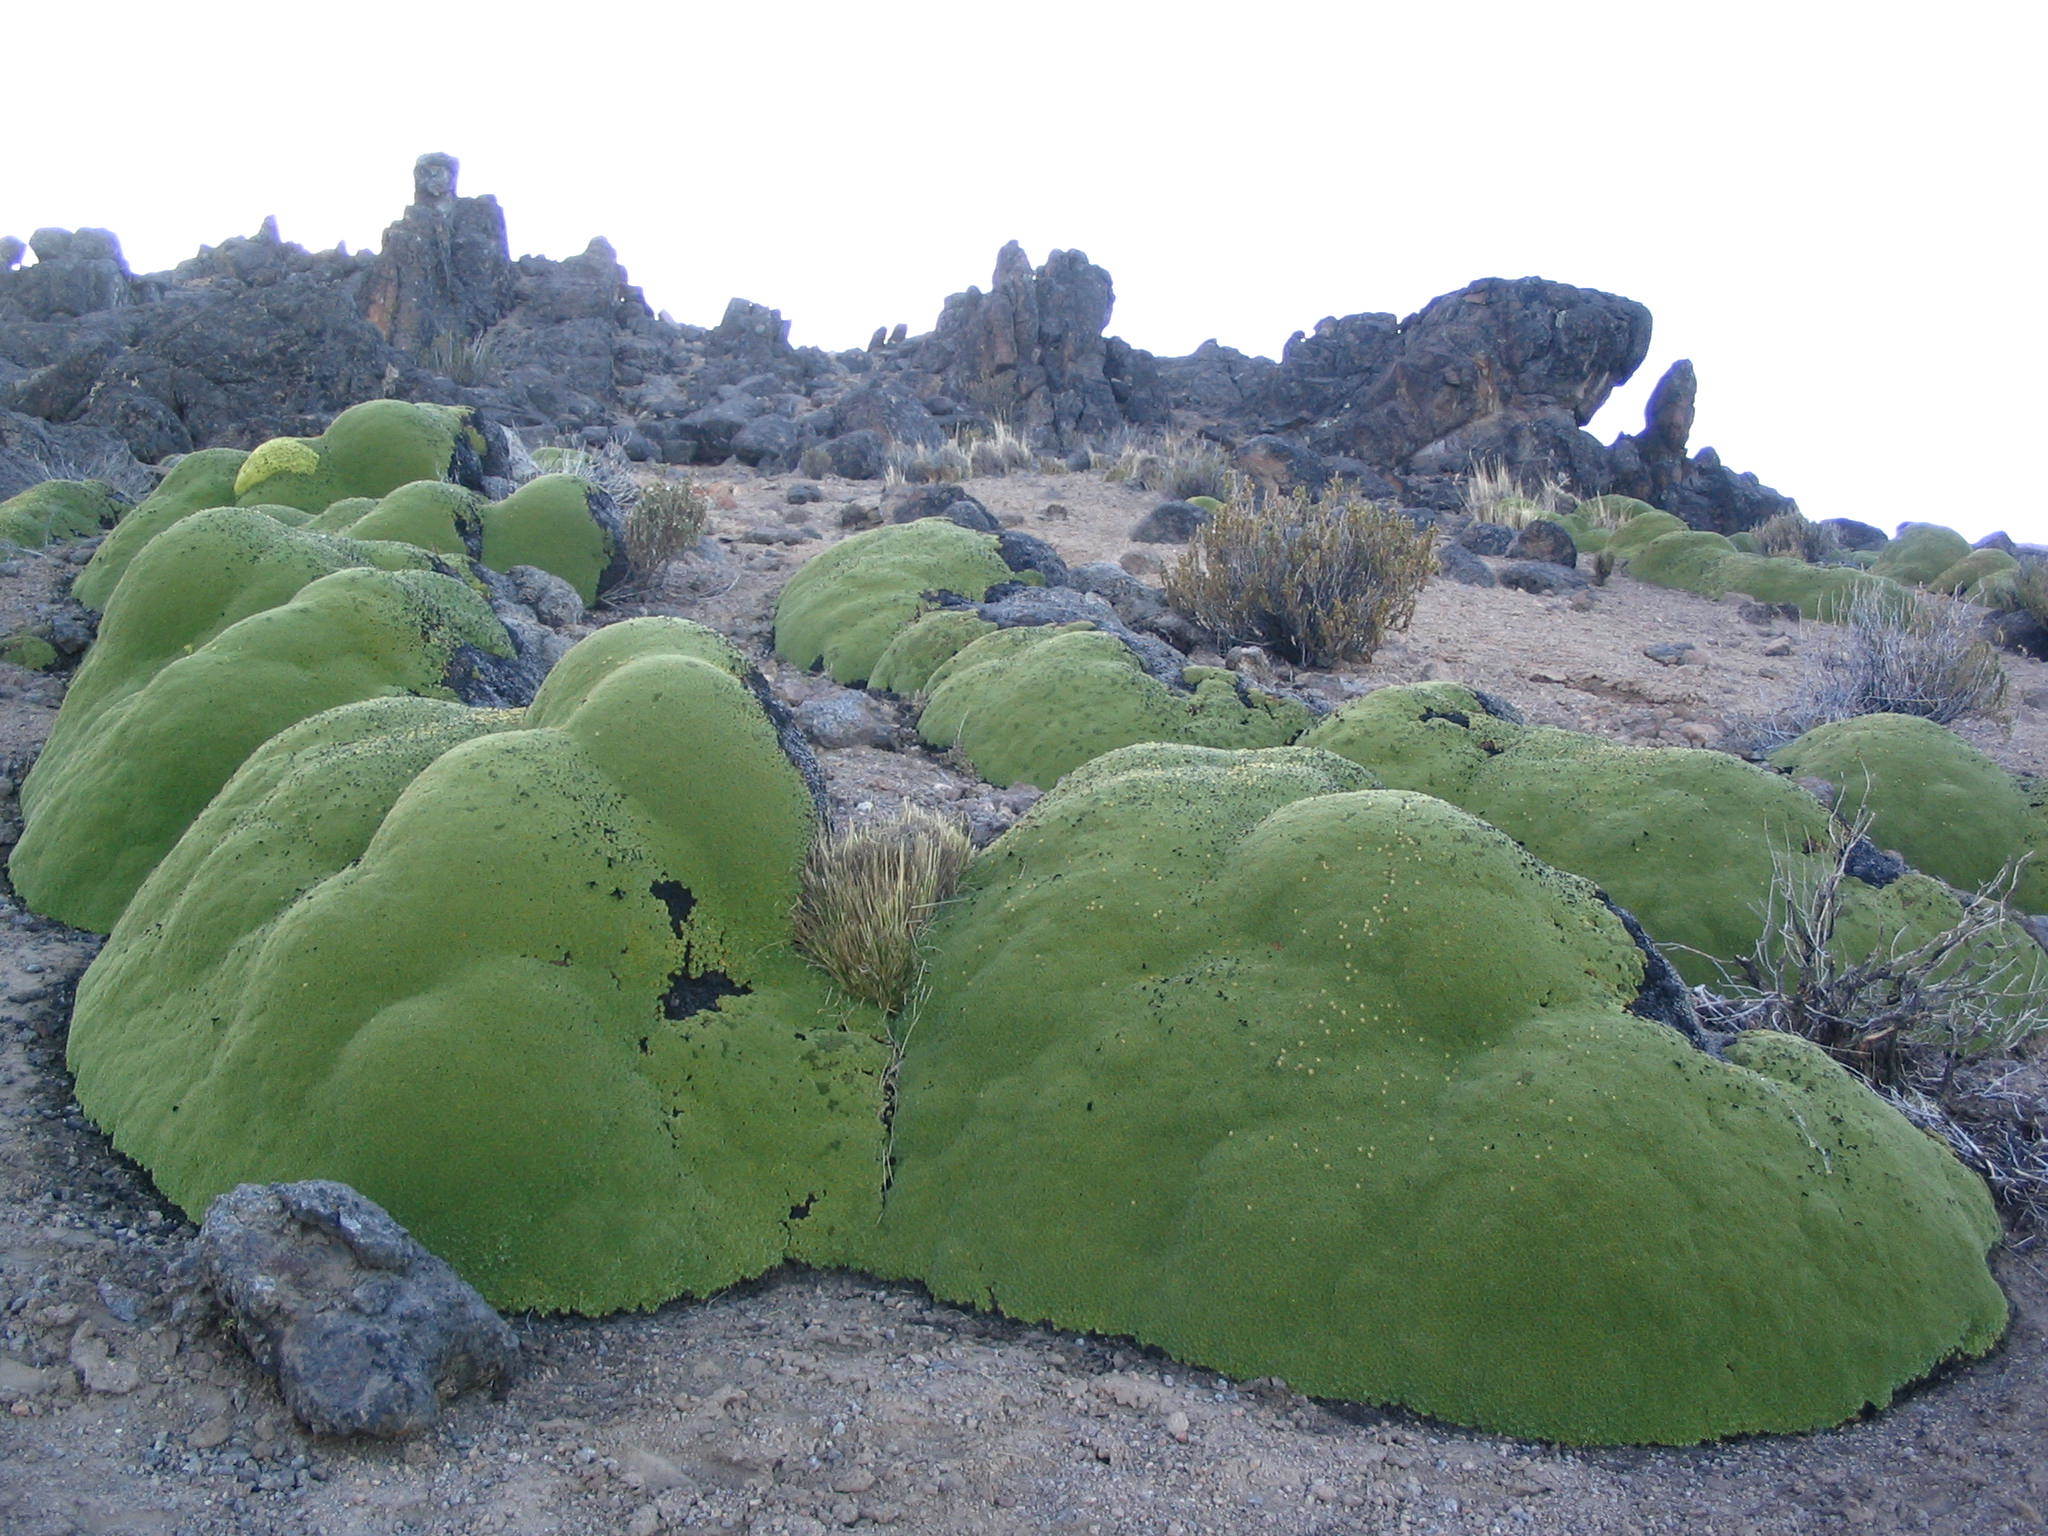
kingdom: Plantae
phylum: Tracheophyta
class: Magnoliopsida
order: Apiales
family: Apiaceae
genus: Azorella
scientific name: Azorella compacta
